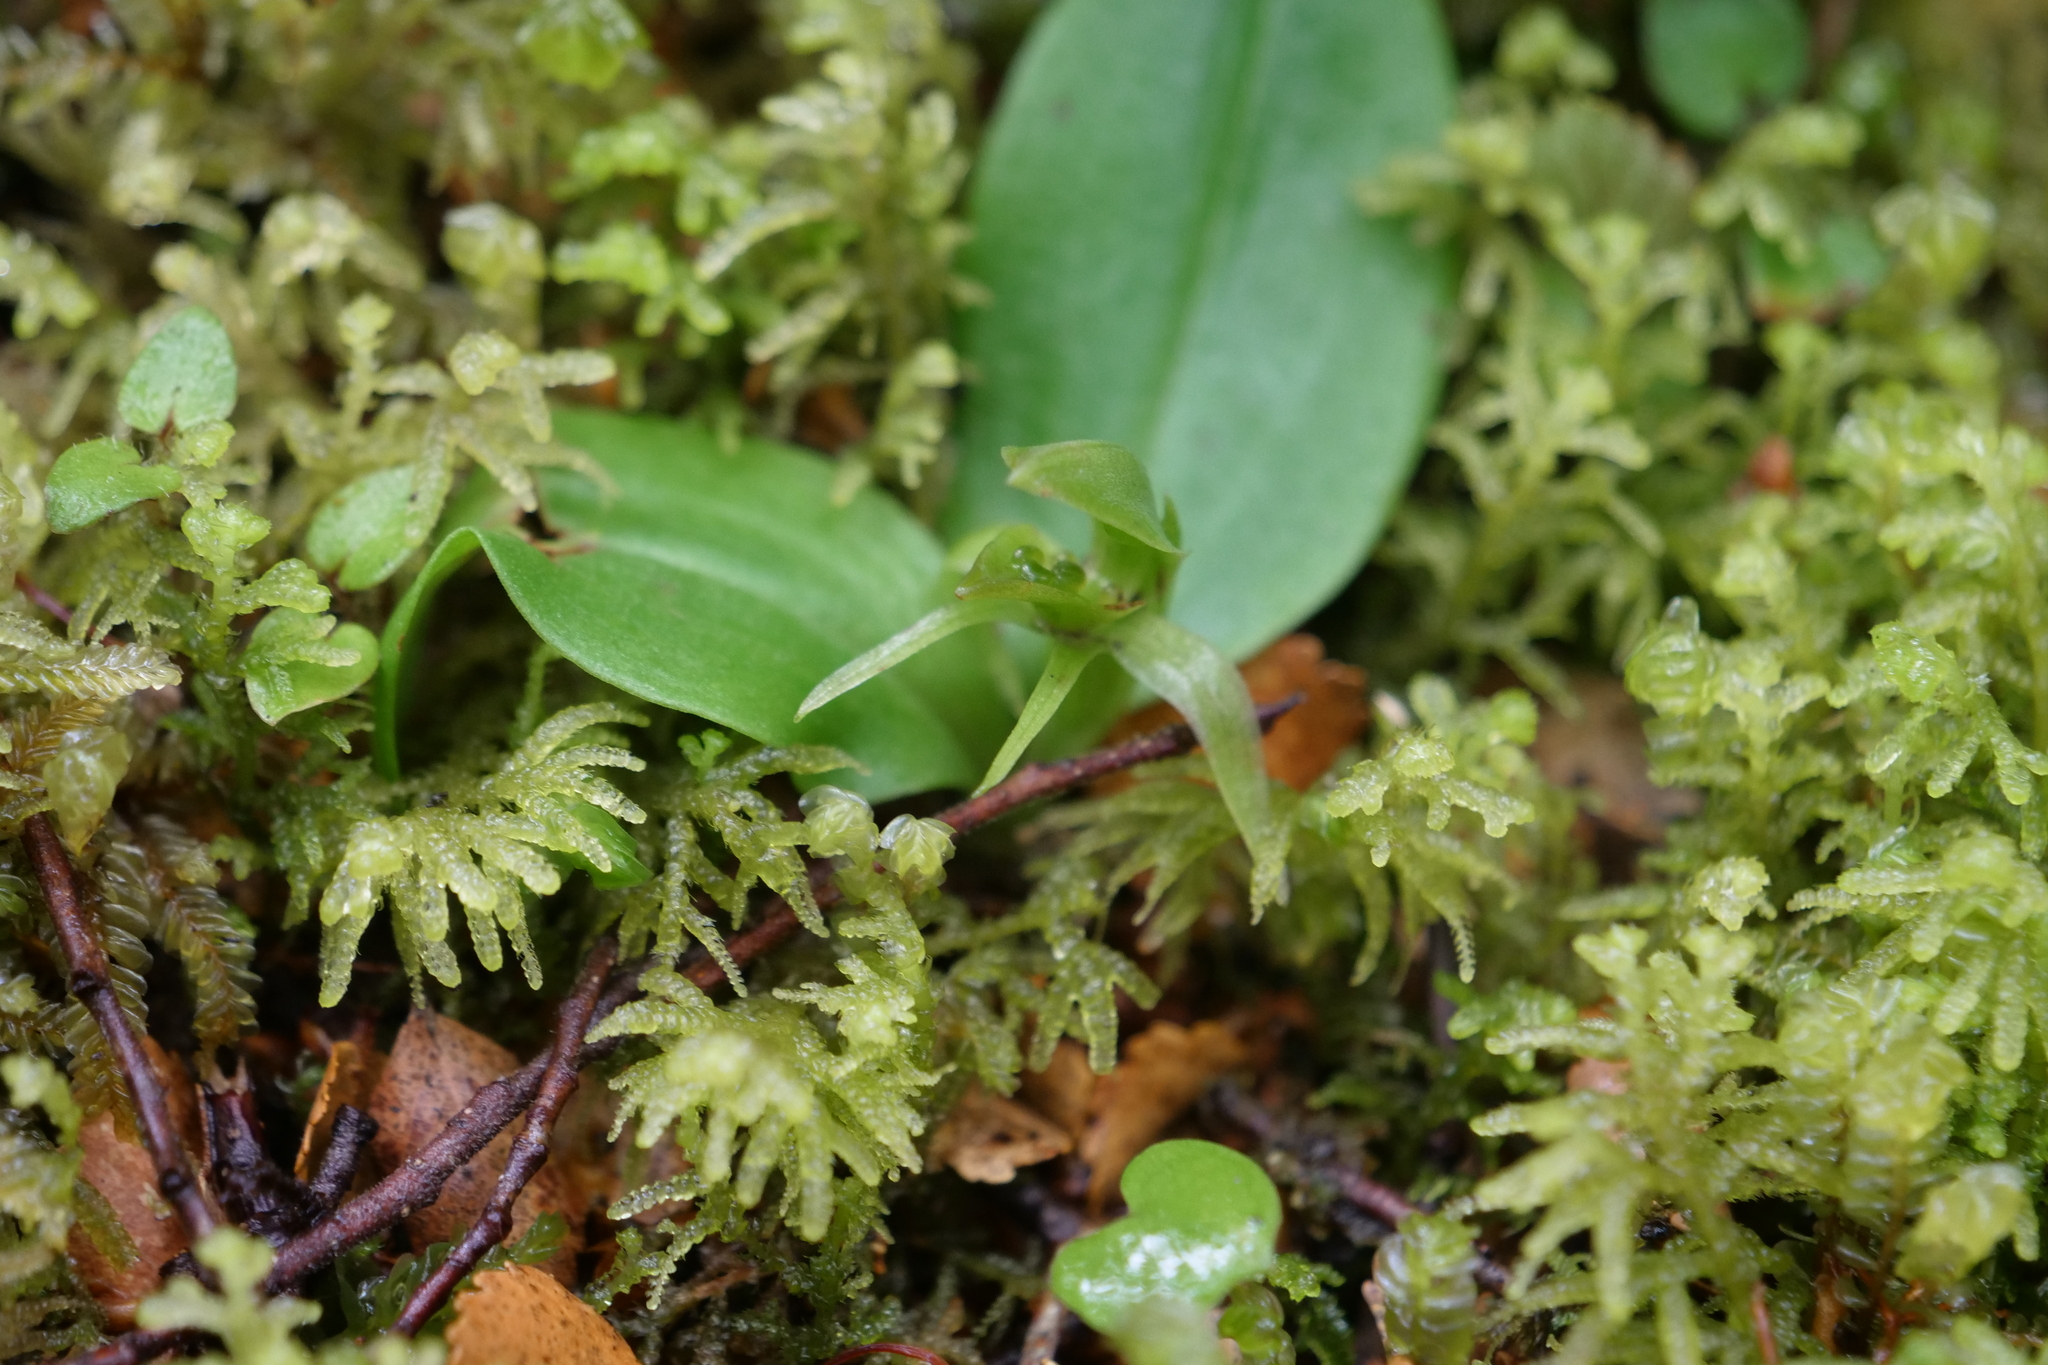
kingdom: Plantae
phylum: Tracheophyta
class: Liliopsida
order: Asparagales
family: Orchidaceae
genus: Chiloglottis
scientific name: Chiloglottis cornuta
